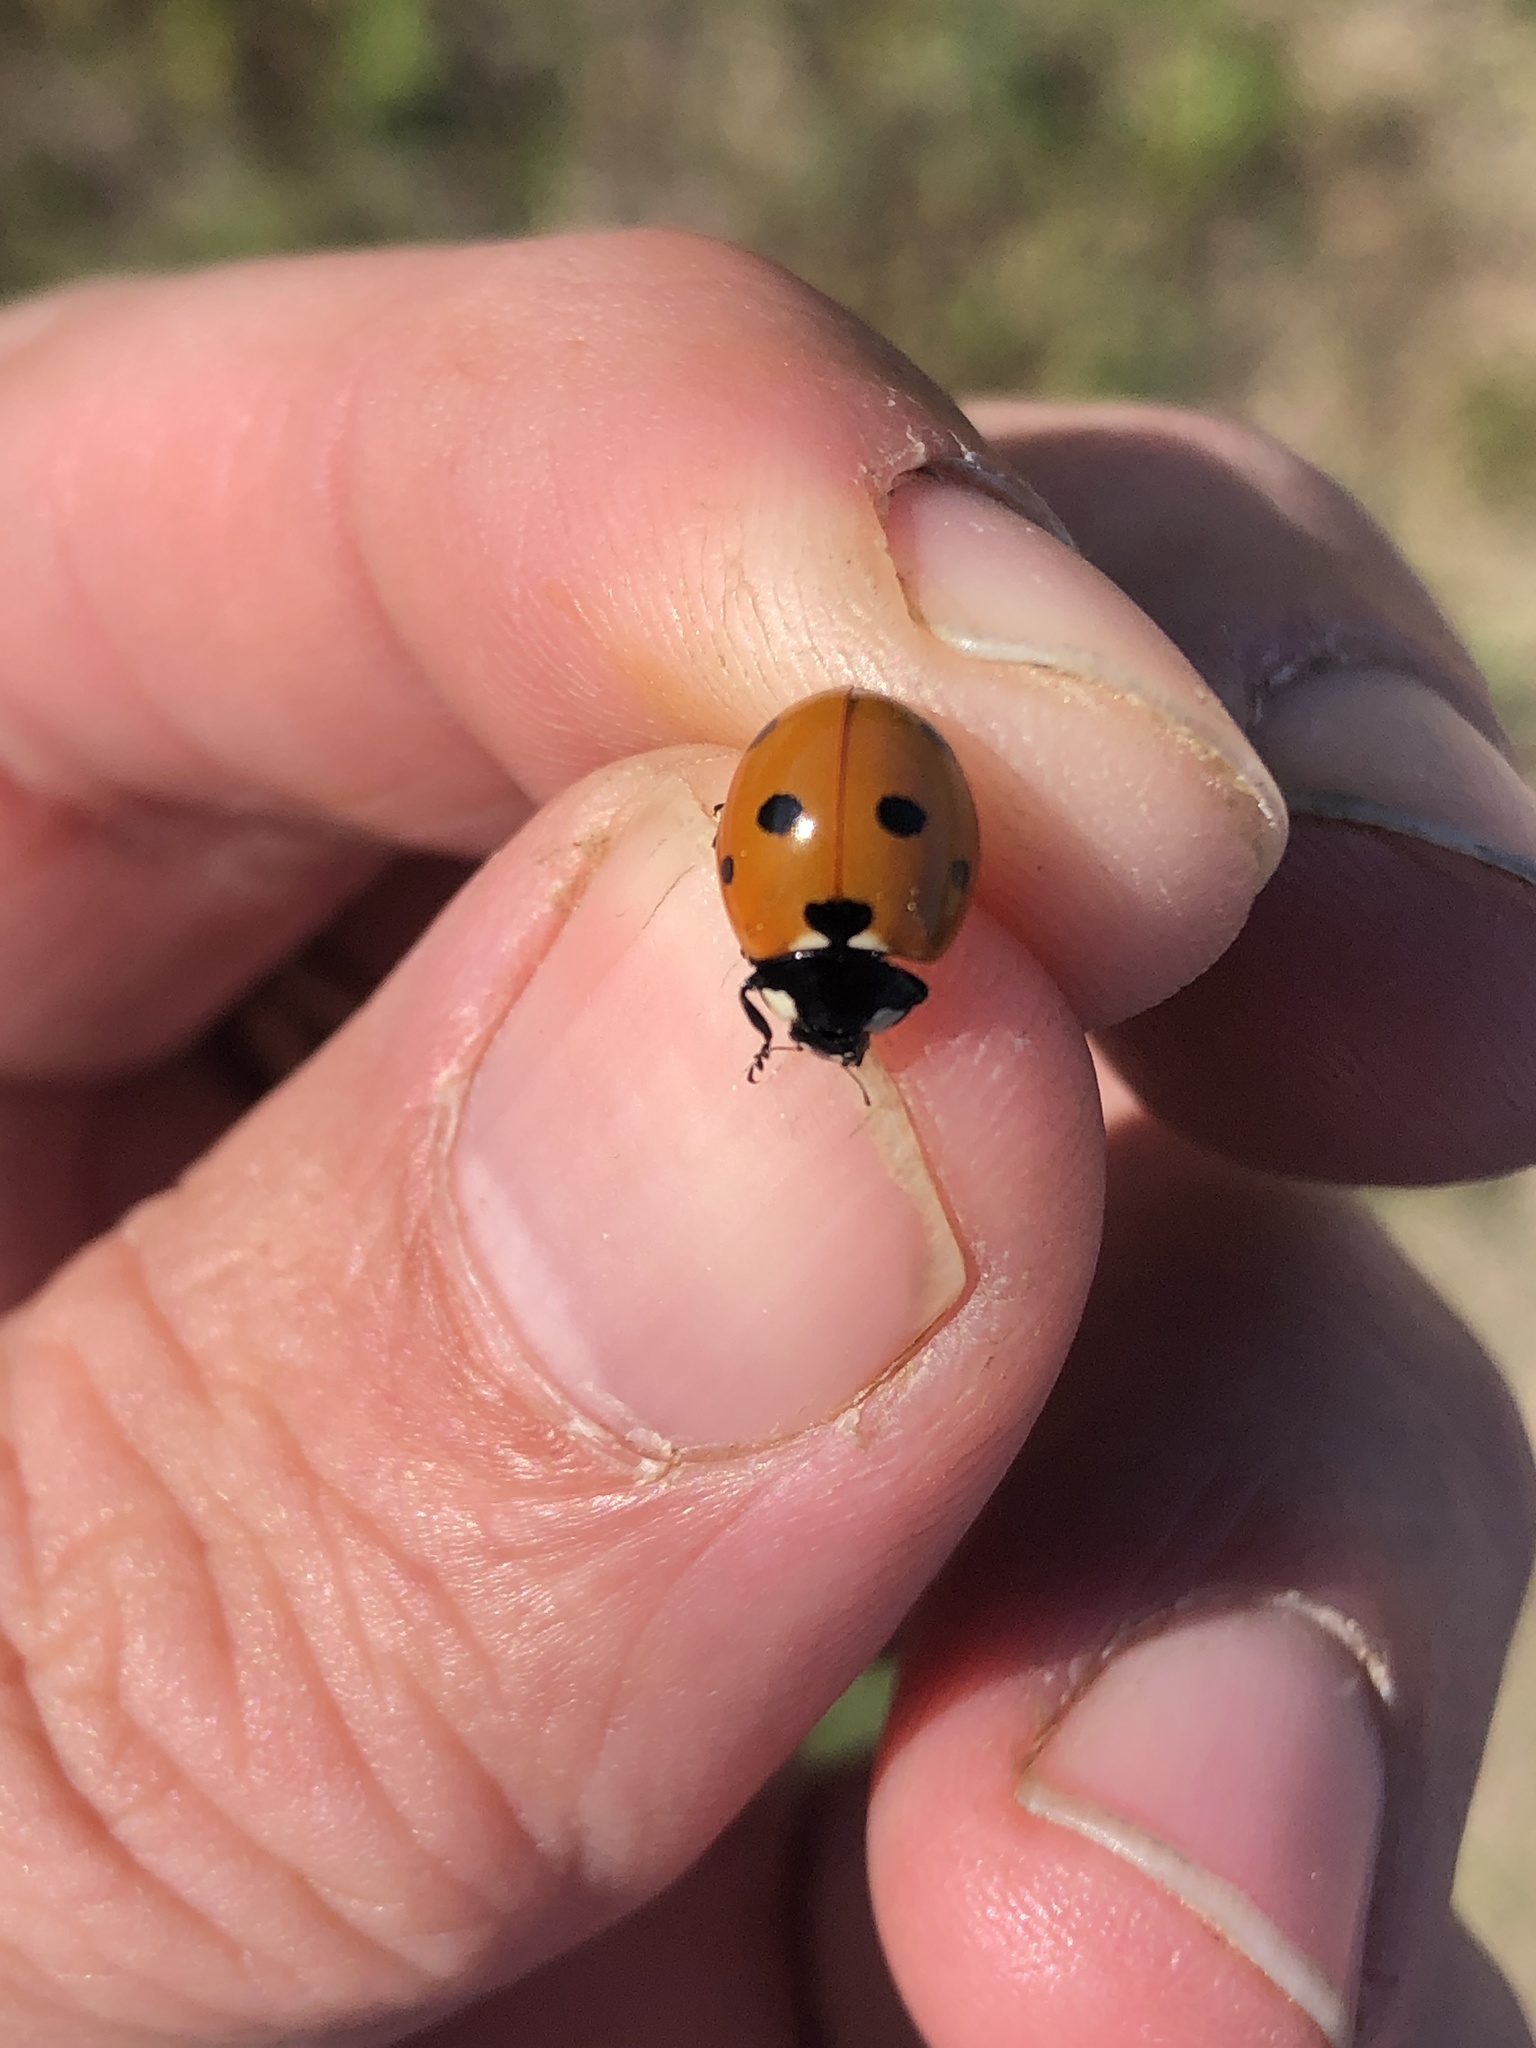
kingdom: Animalia
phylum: Arthropoda
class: Insecta
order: Coleoptera
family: Coccinellidae
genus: Coccinella
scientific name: Coccinella septempunctata
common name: Sevenspotted lady beetle
